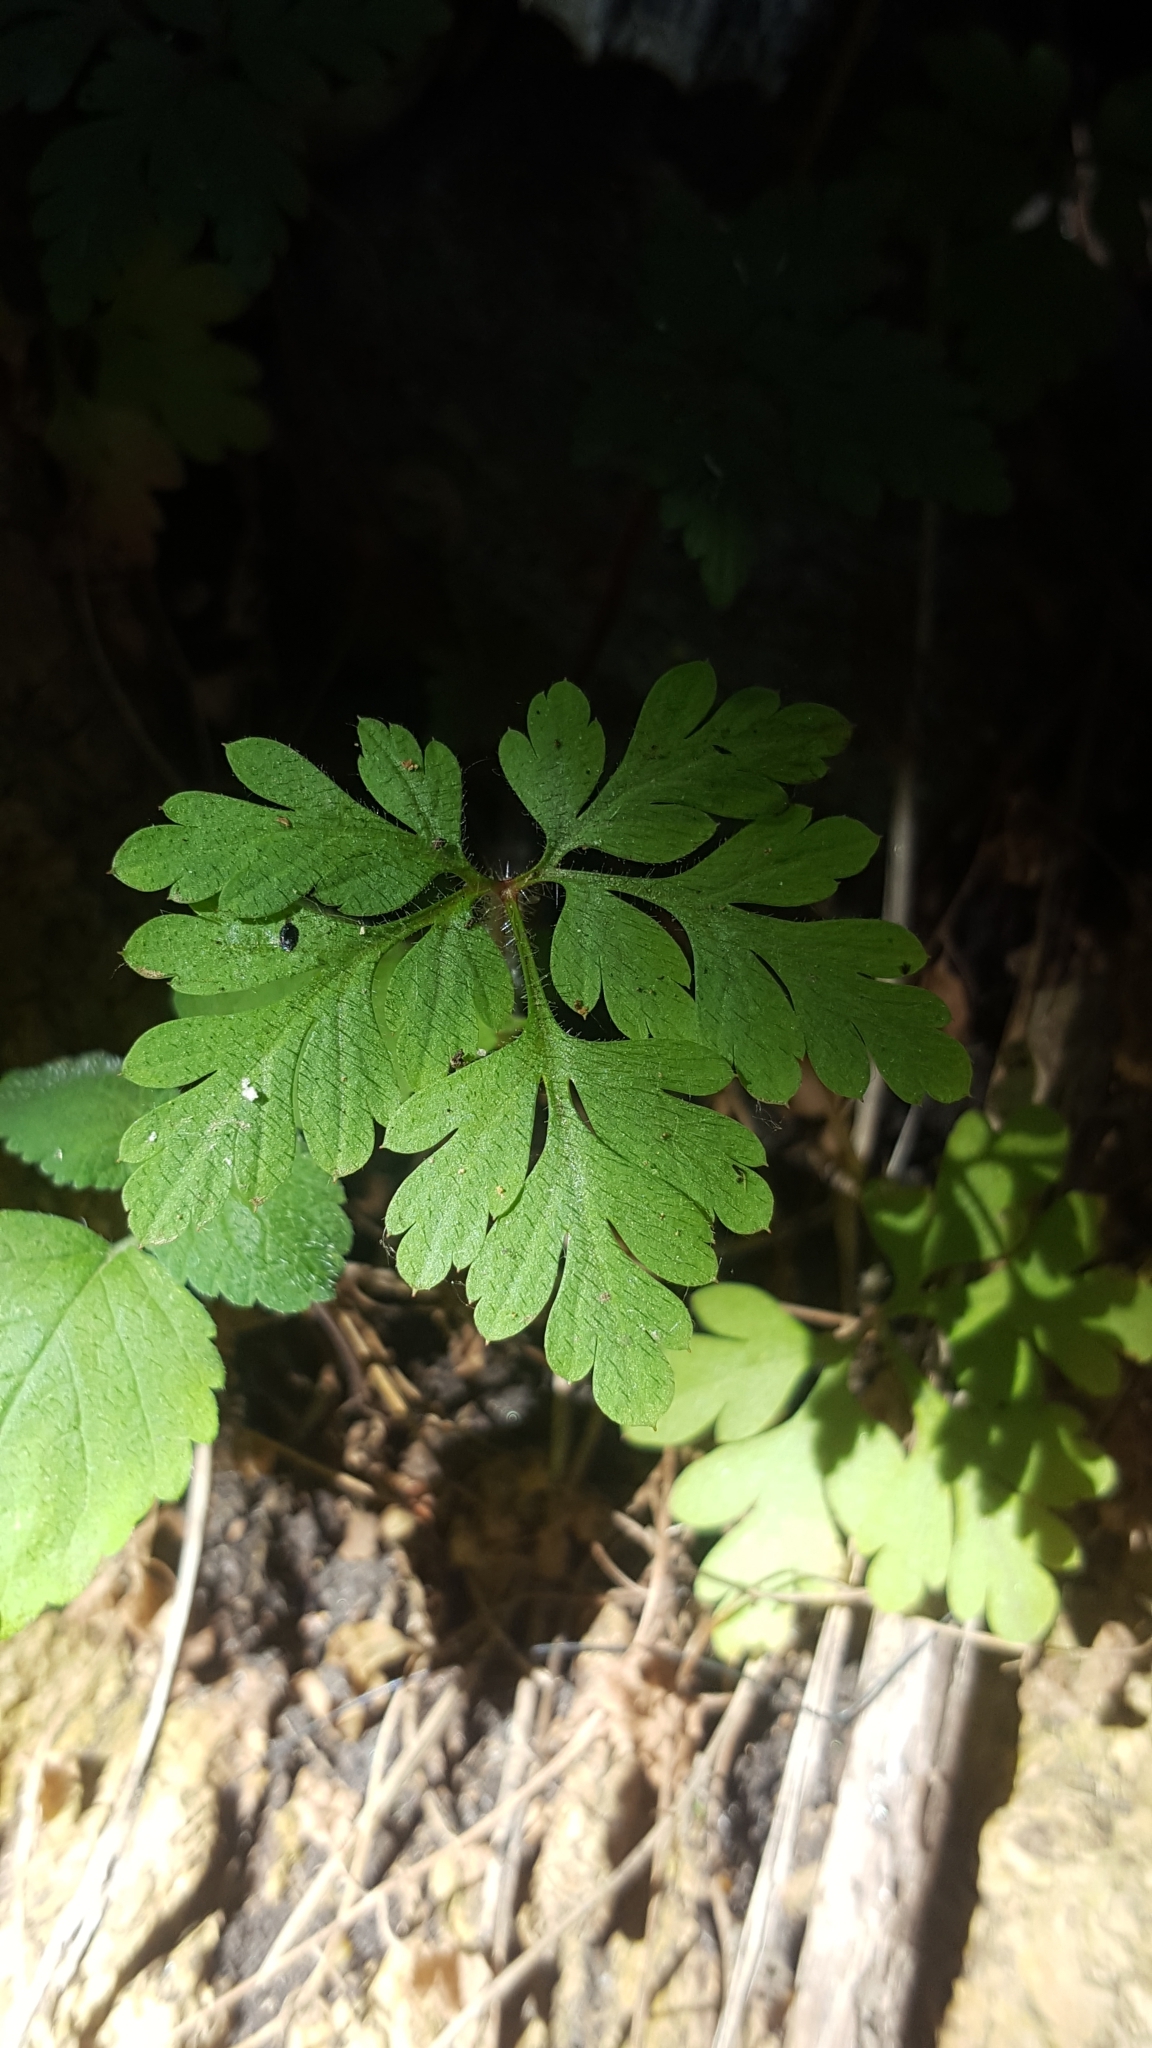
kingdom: Plantae
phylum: Tracheophyta
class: Magnoliopsida
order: Geraniales
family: Geraniaceae
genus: Geranium
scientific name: Geranium robertianum
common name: Herb-robert
